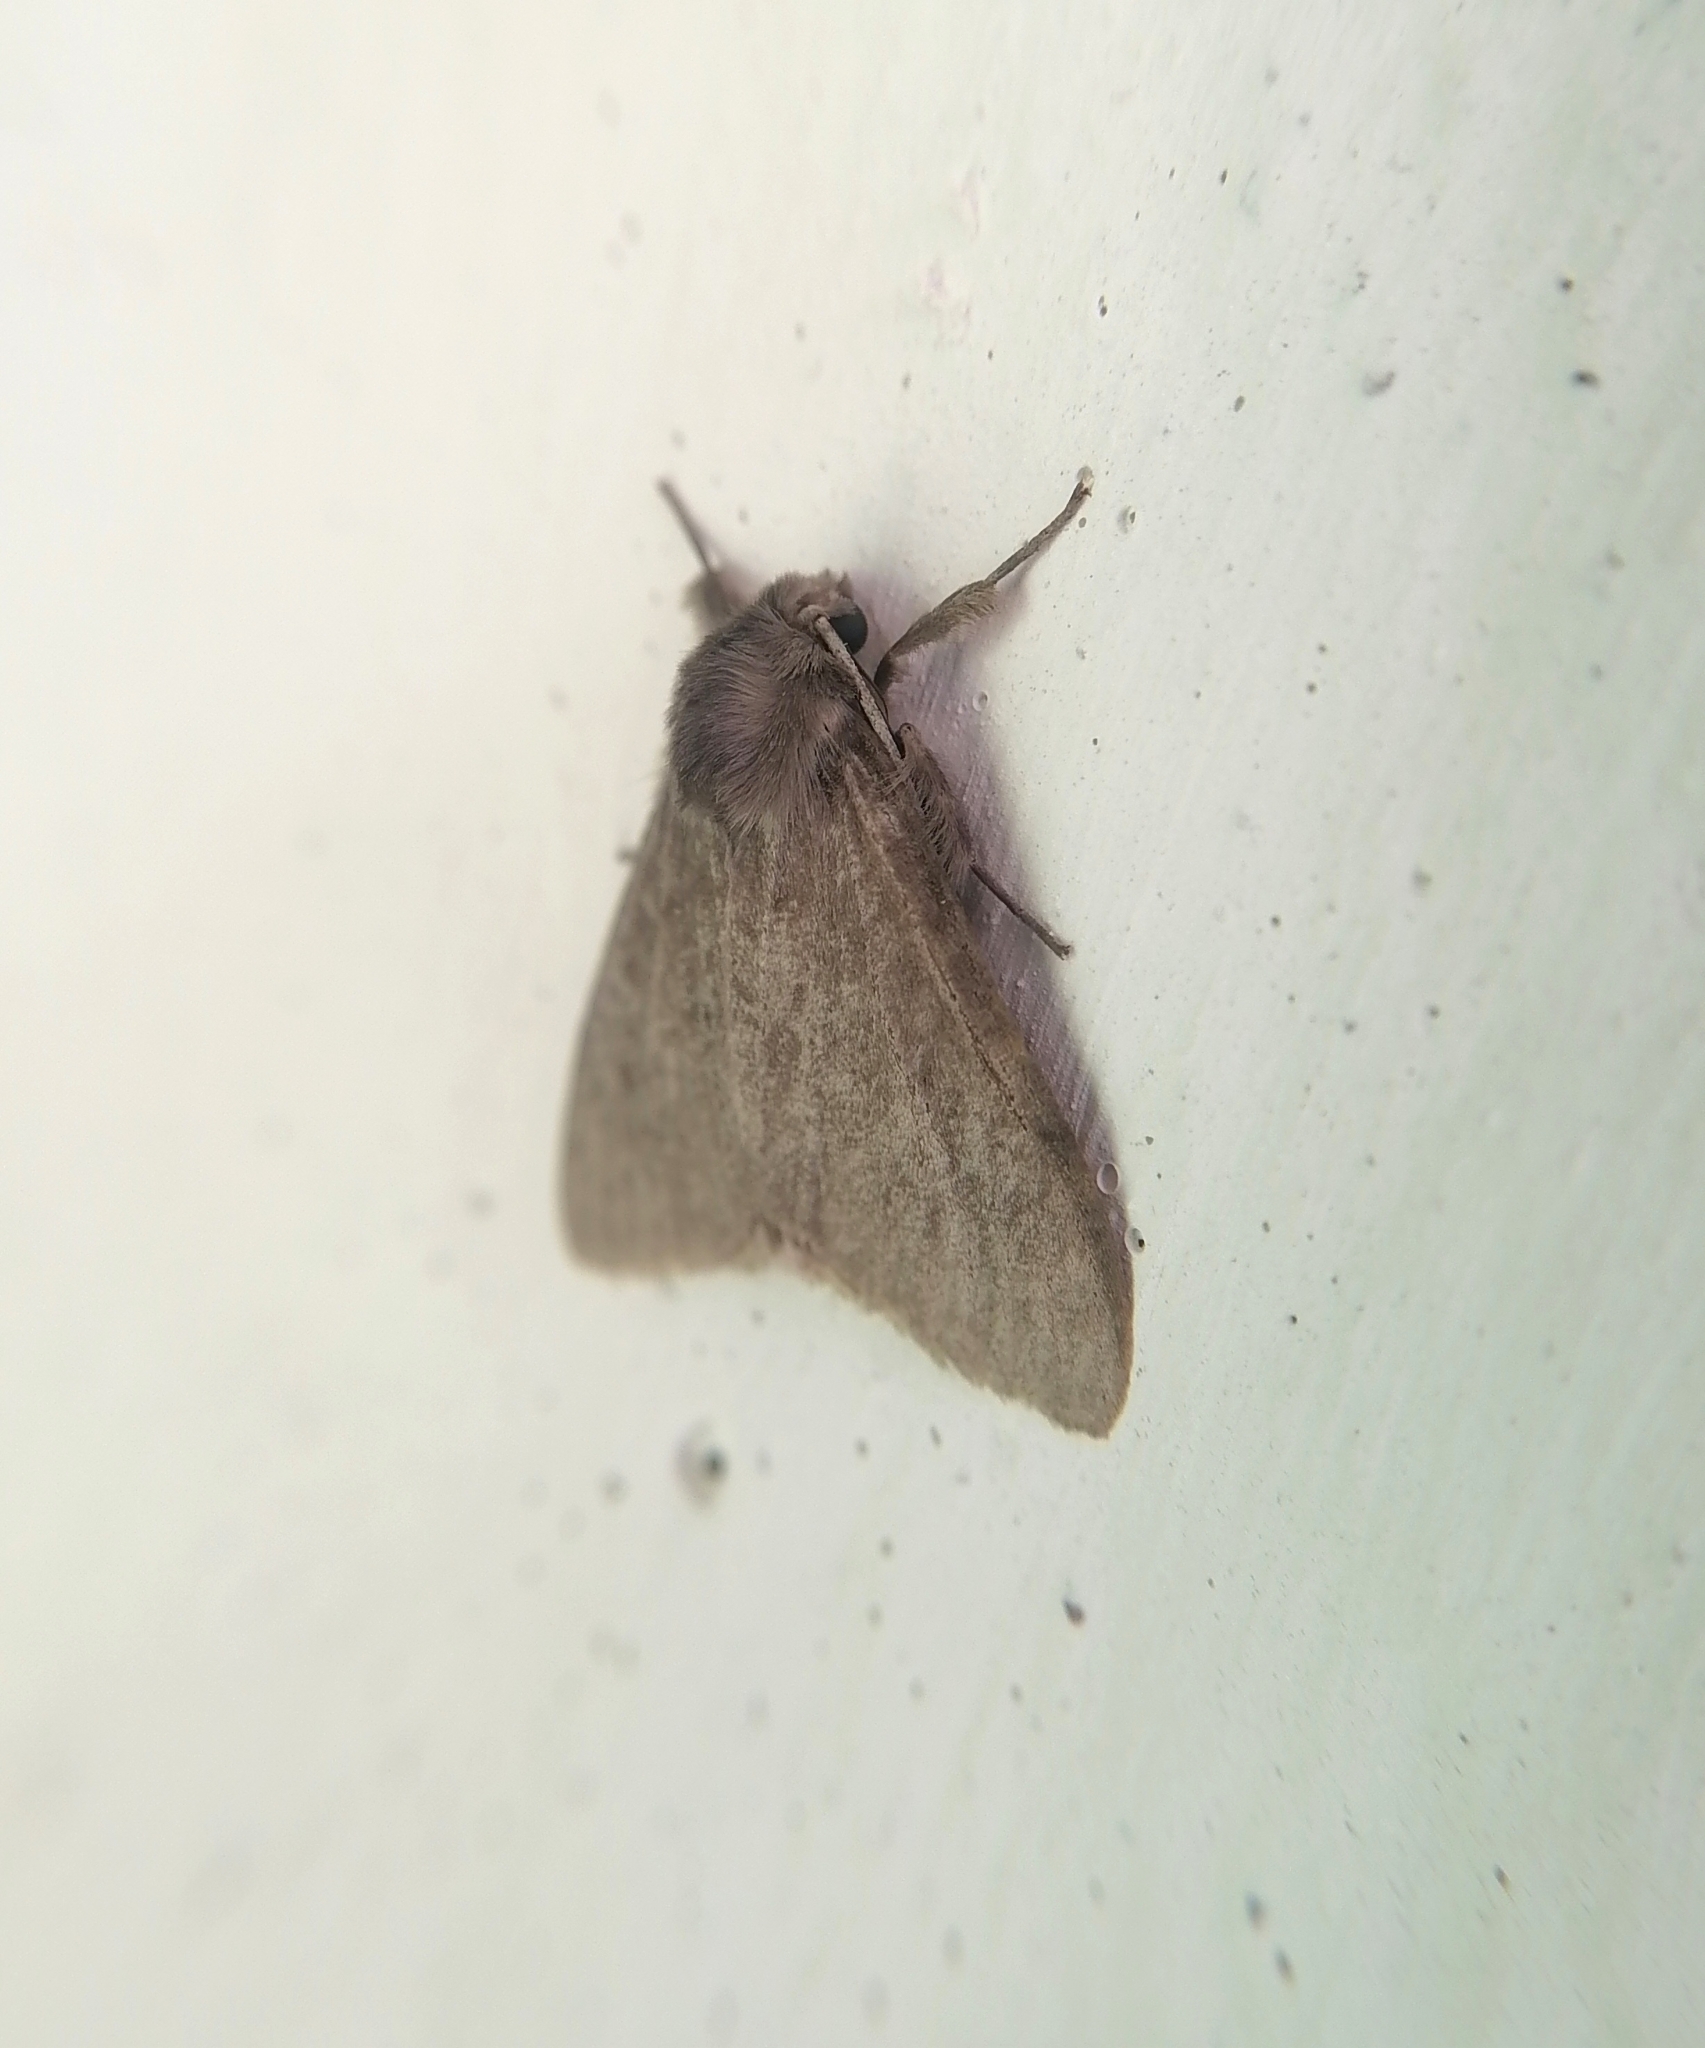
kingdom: Animalia
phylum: Arthropoda
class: Insecta
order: Lepidoptera
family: Erebidae
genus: Lymantria
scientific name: Lymantria monacha
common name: Black arches
